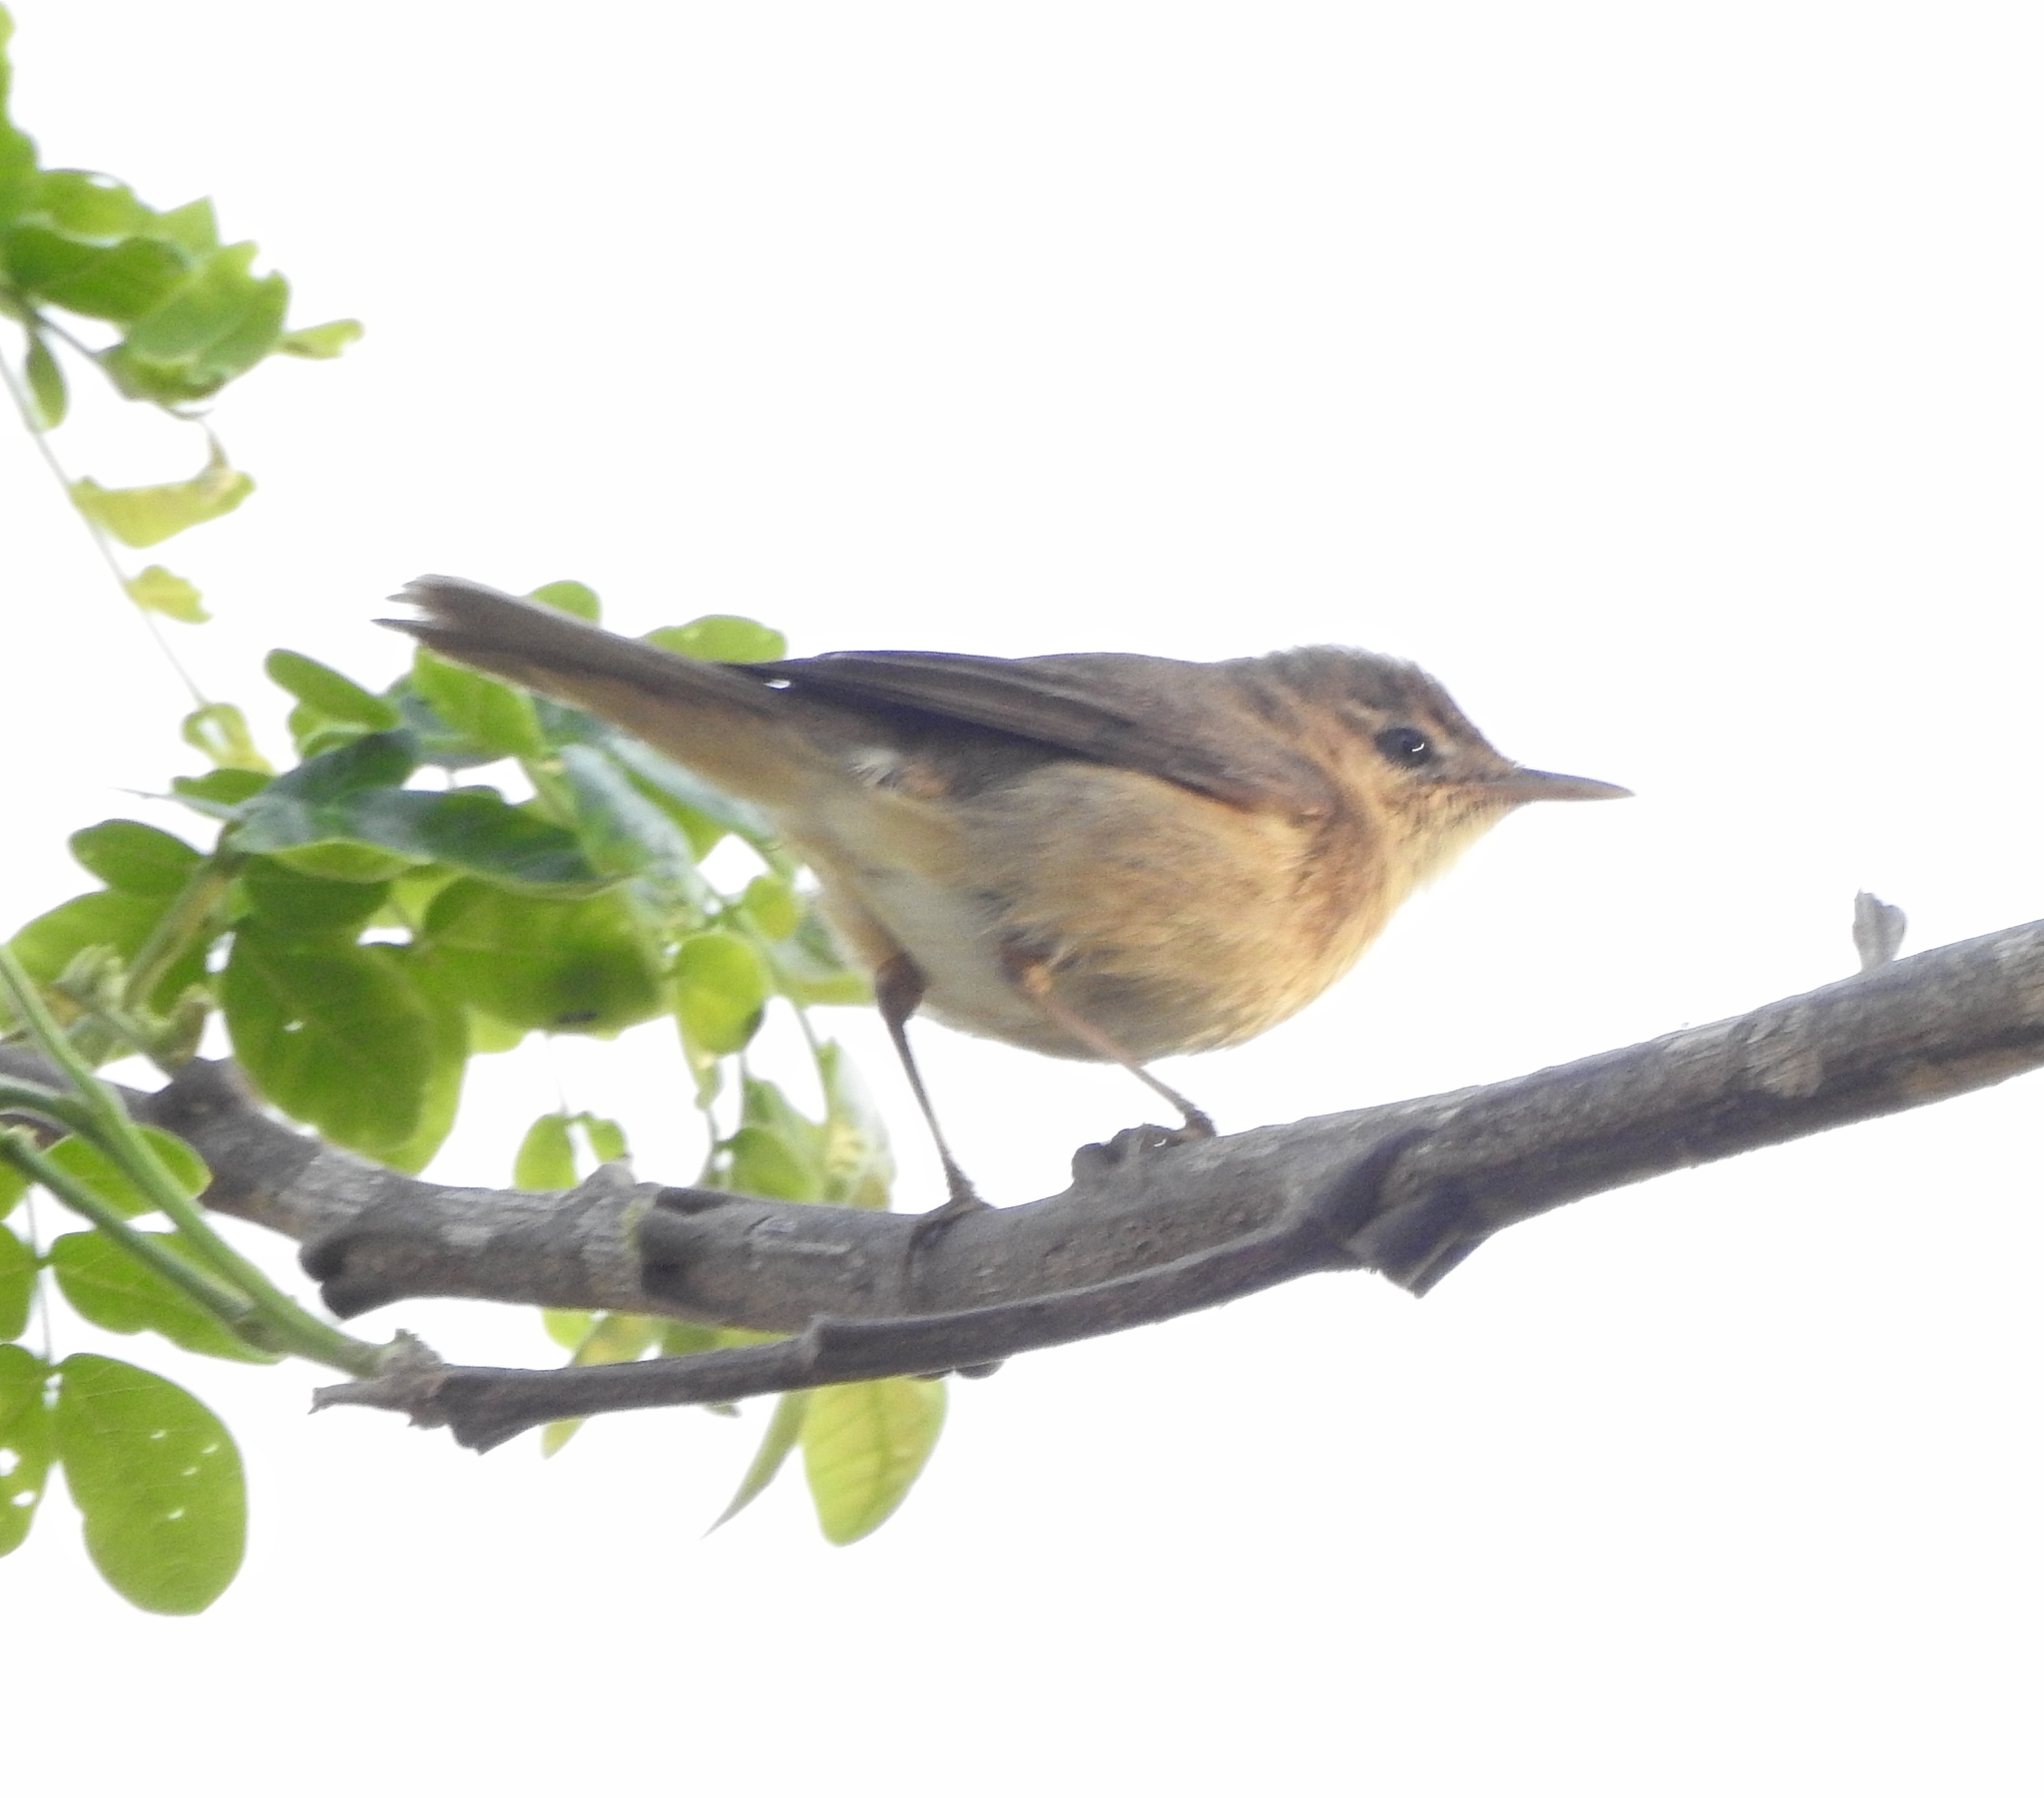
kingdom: Animalia
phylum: Chordata
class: Aves
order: Passeriformes
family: Acrocephalidae
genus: Acrocephalus
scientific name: Acrocephalus dumetorum
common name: Blyth's reed warbler
